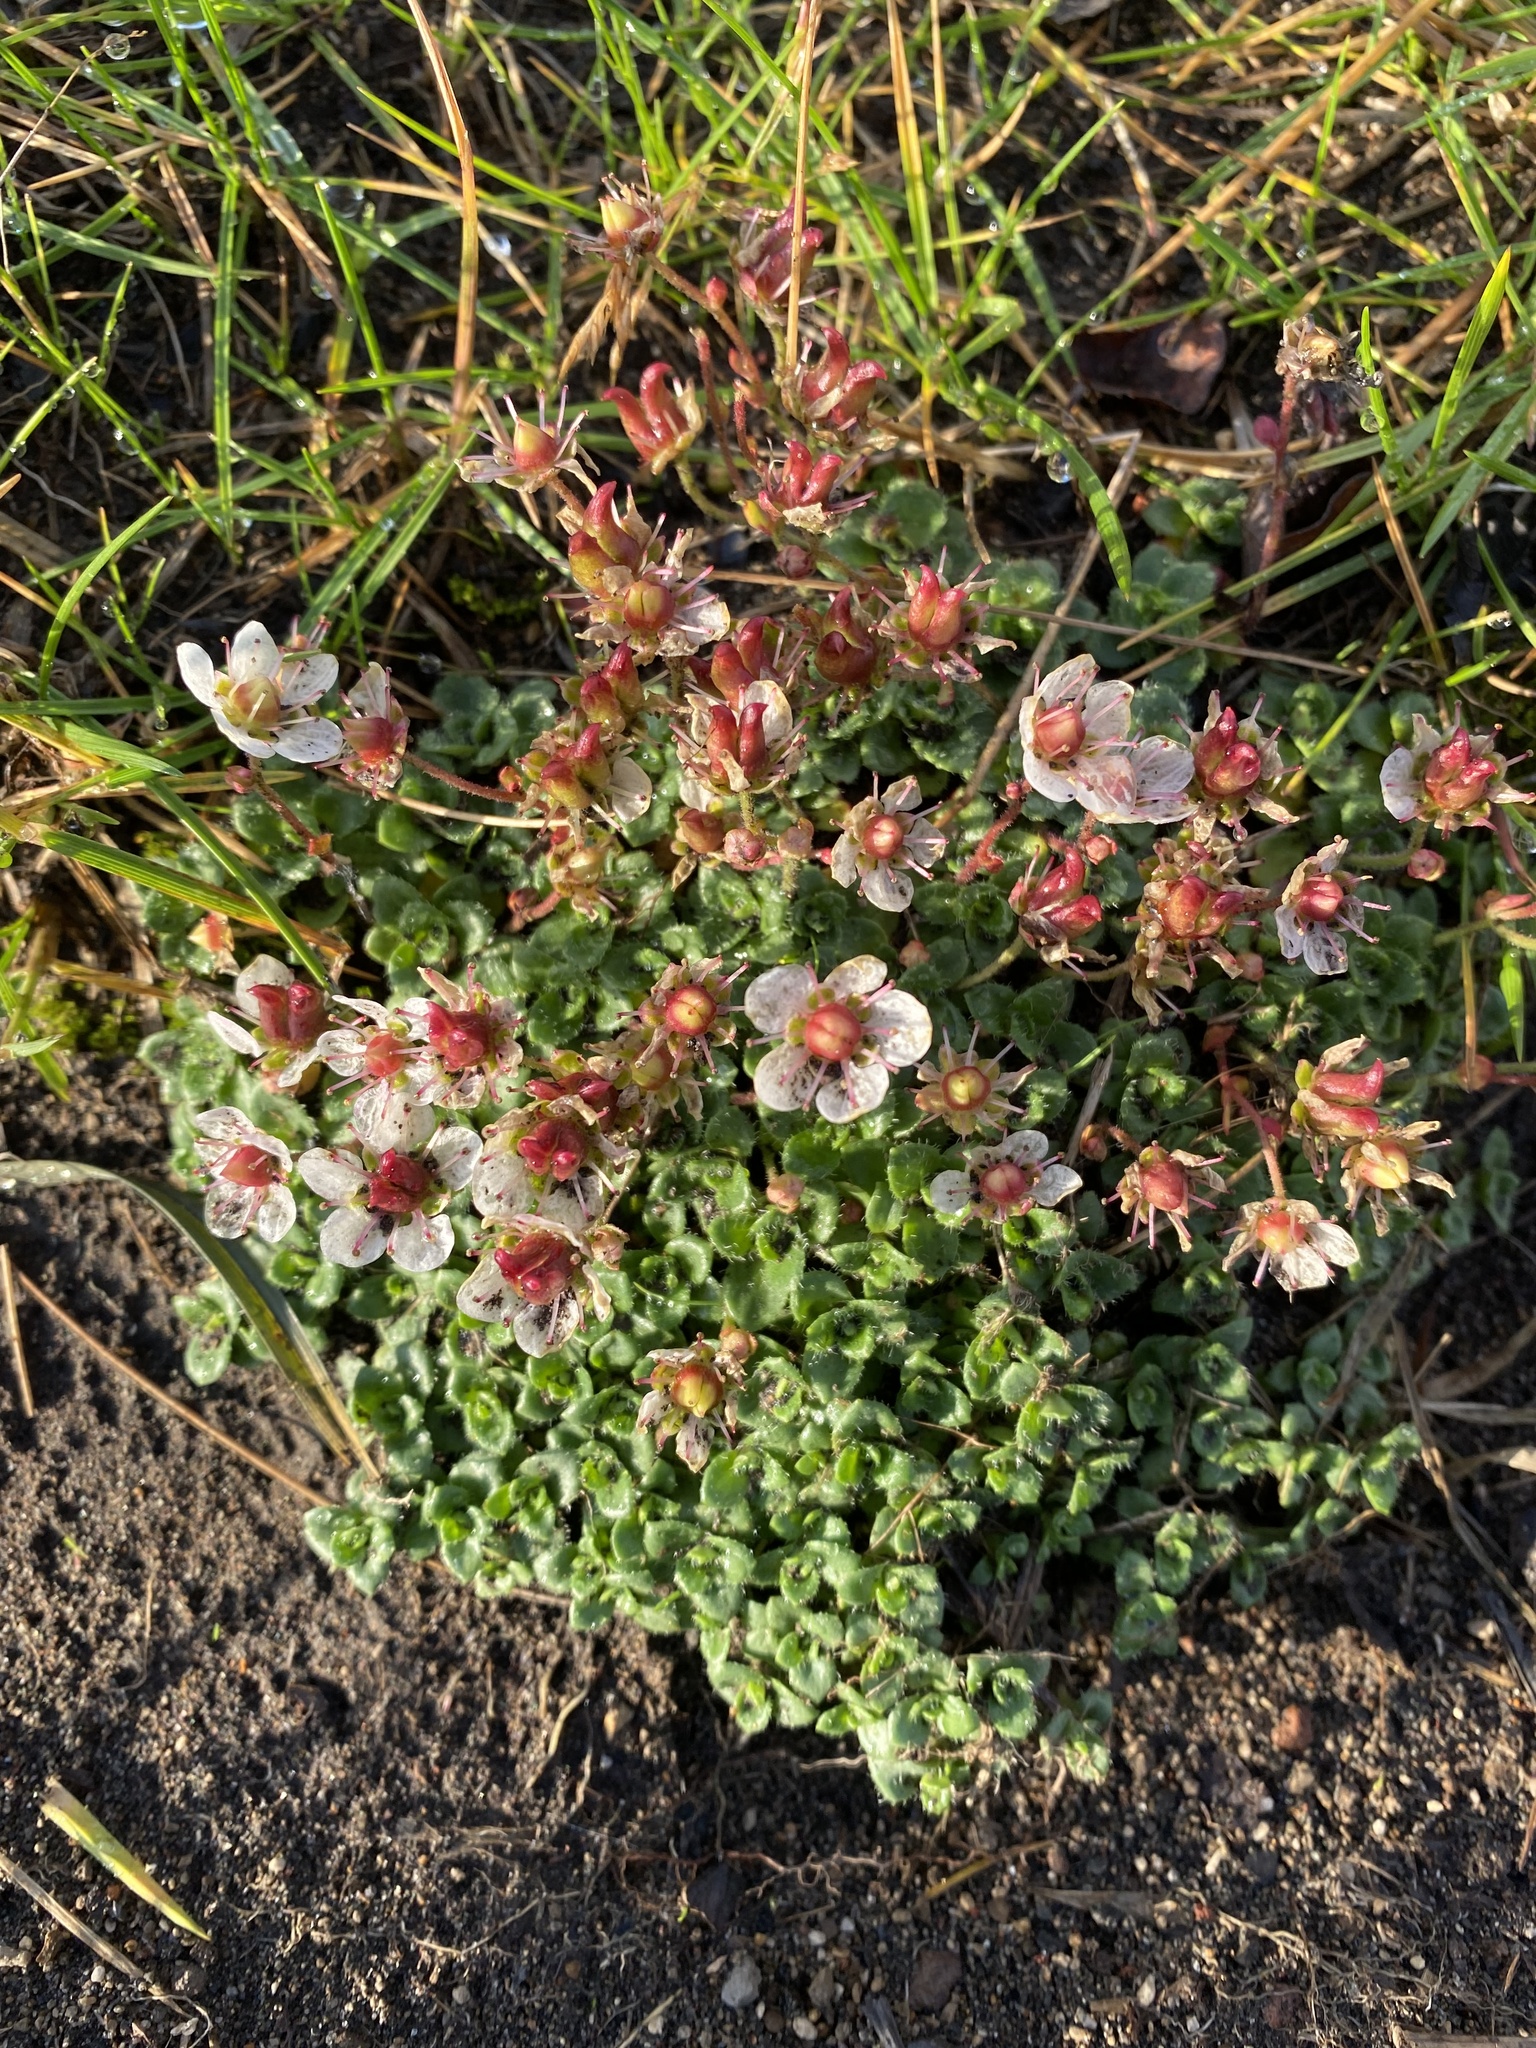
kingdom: Plantae
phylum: Tracheophyta
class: Magnoliopsida
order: Saxifragales
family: Saxifragaceae
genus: Micranthes
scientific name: Micranthes merkii
